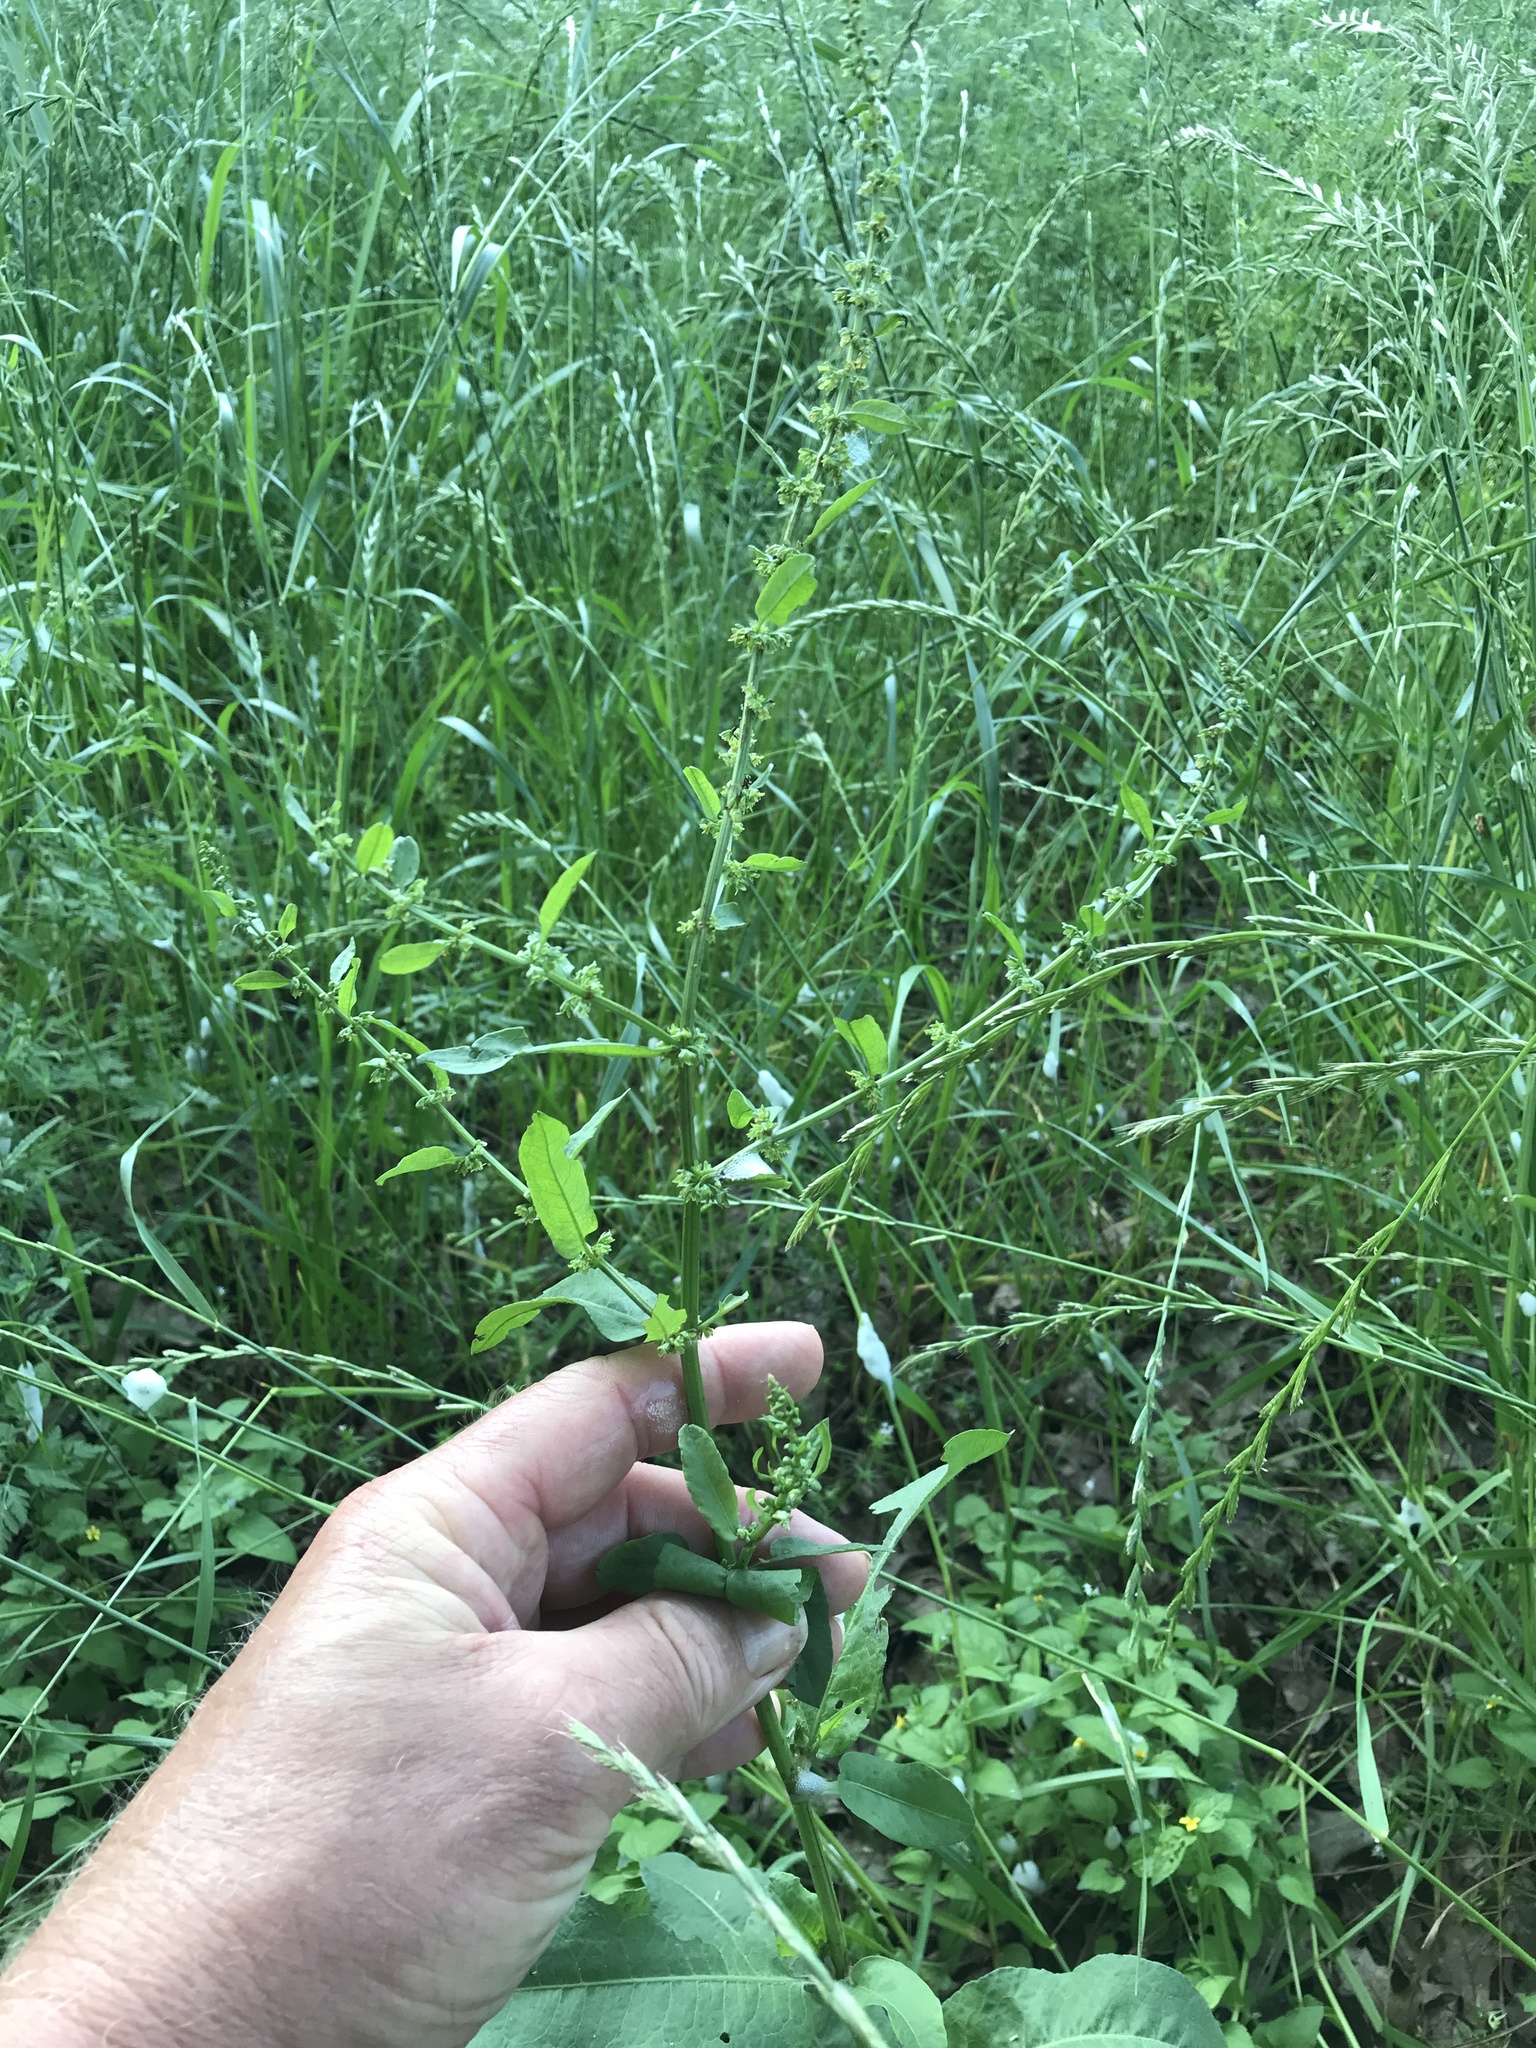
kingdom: Plantae
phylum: Tracheophyta
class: Magnoliopsida
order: Caryophyllales
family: Polygonaceae
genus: Rumex
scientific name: Rumex pulcher
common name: Fiddle dock
